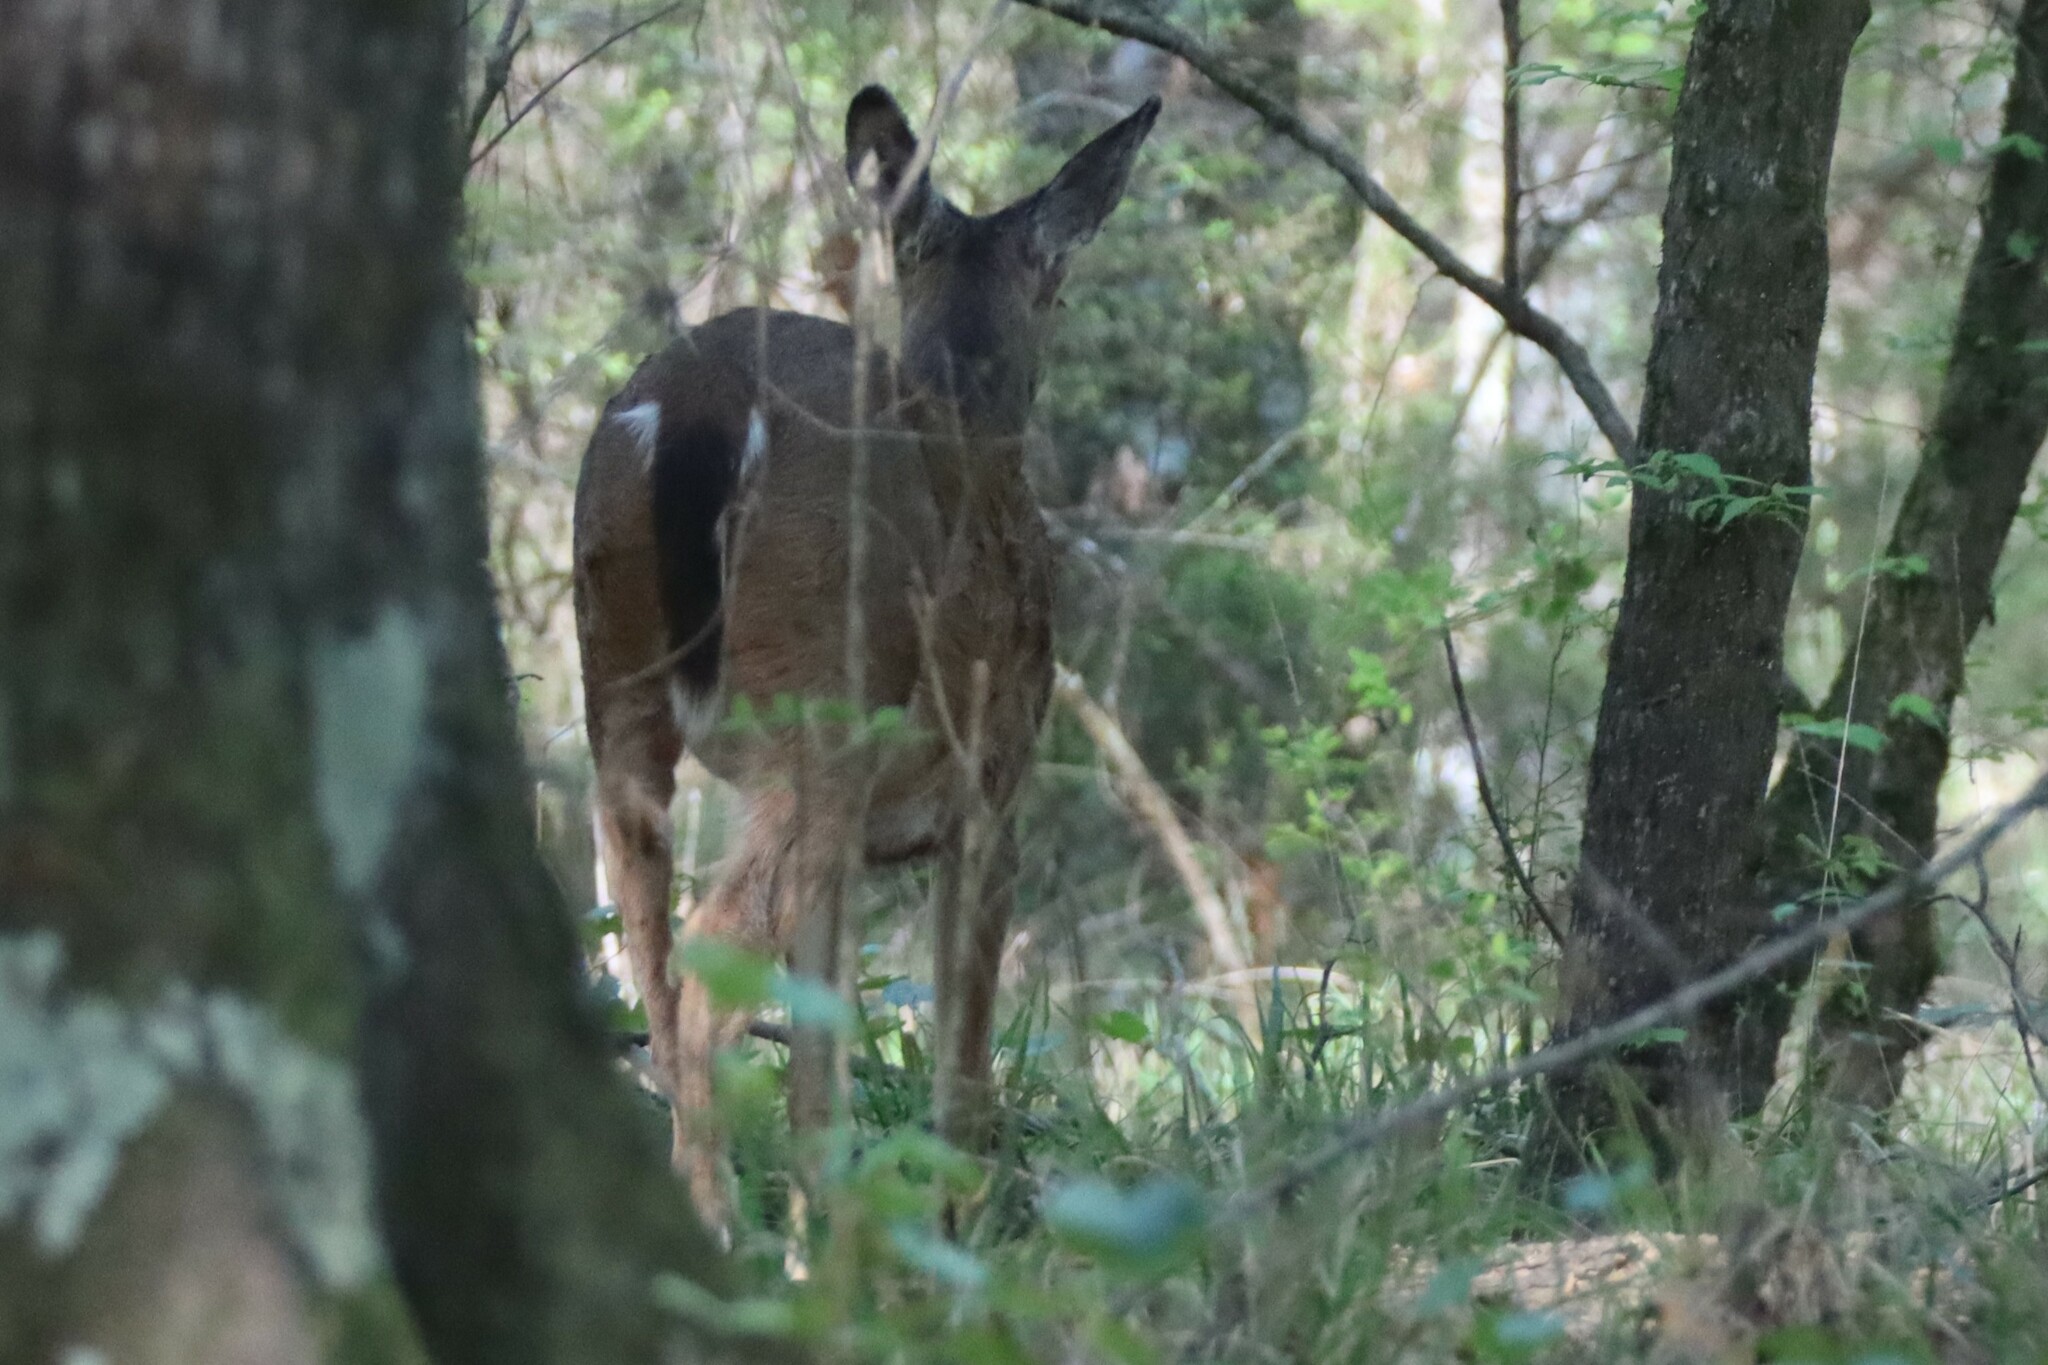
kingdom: Animalia
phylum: Chordata
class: Mammalia
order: Artiodactyla
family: Cervidae
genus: Odocoileus
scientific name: Odocoileus virginianus
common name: White-tailed deer
